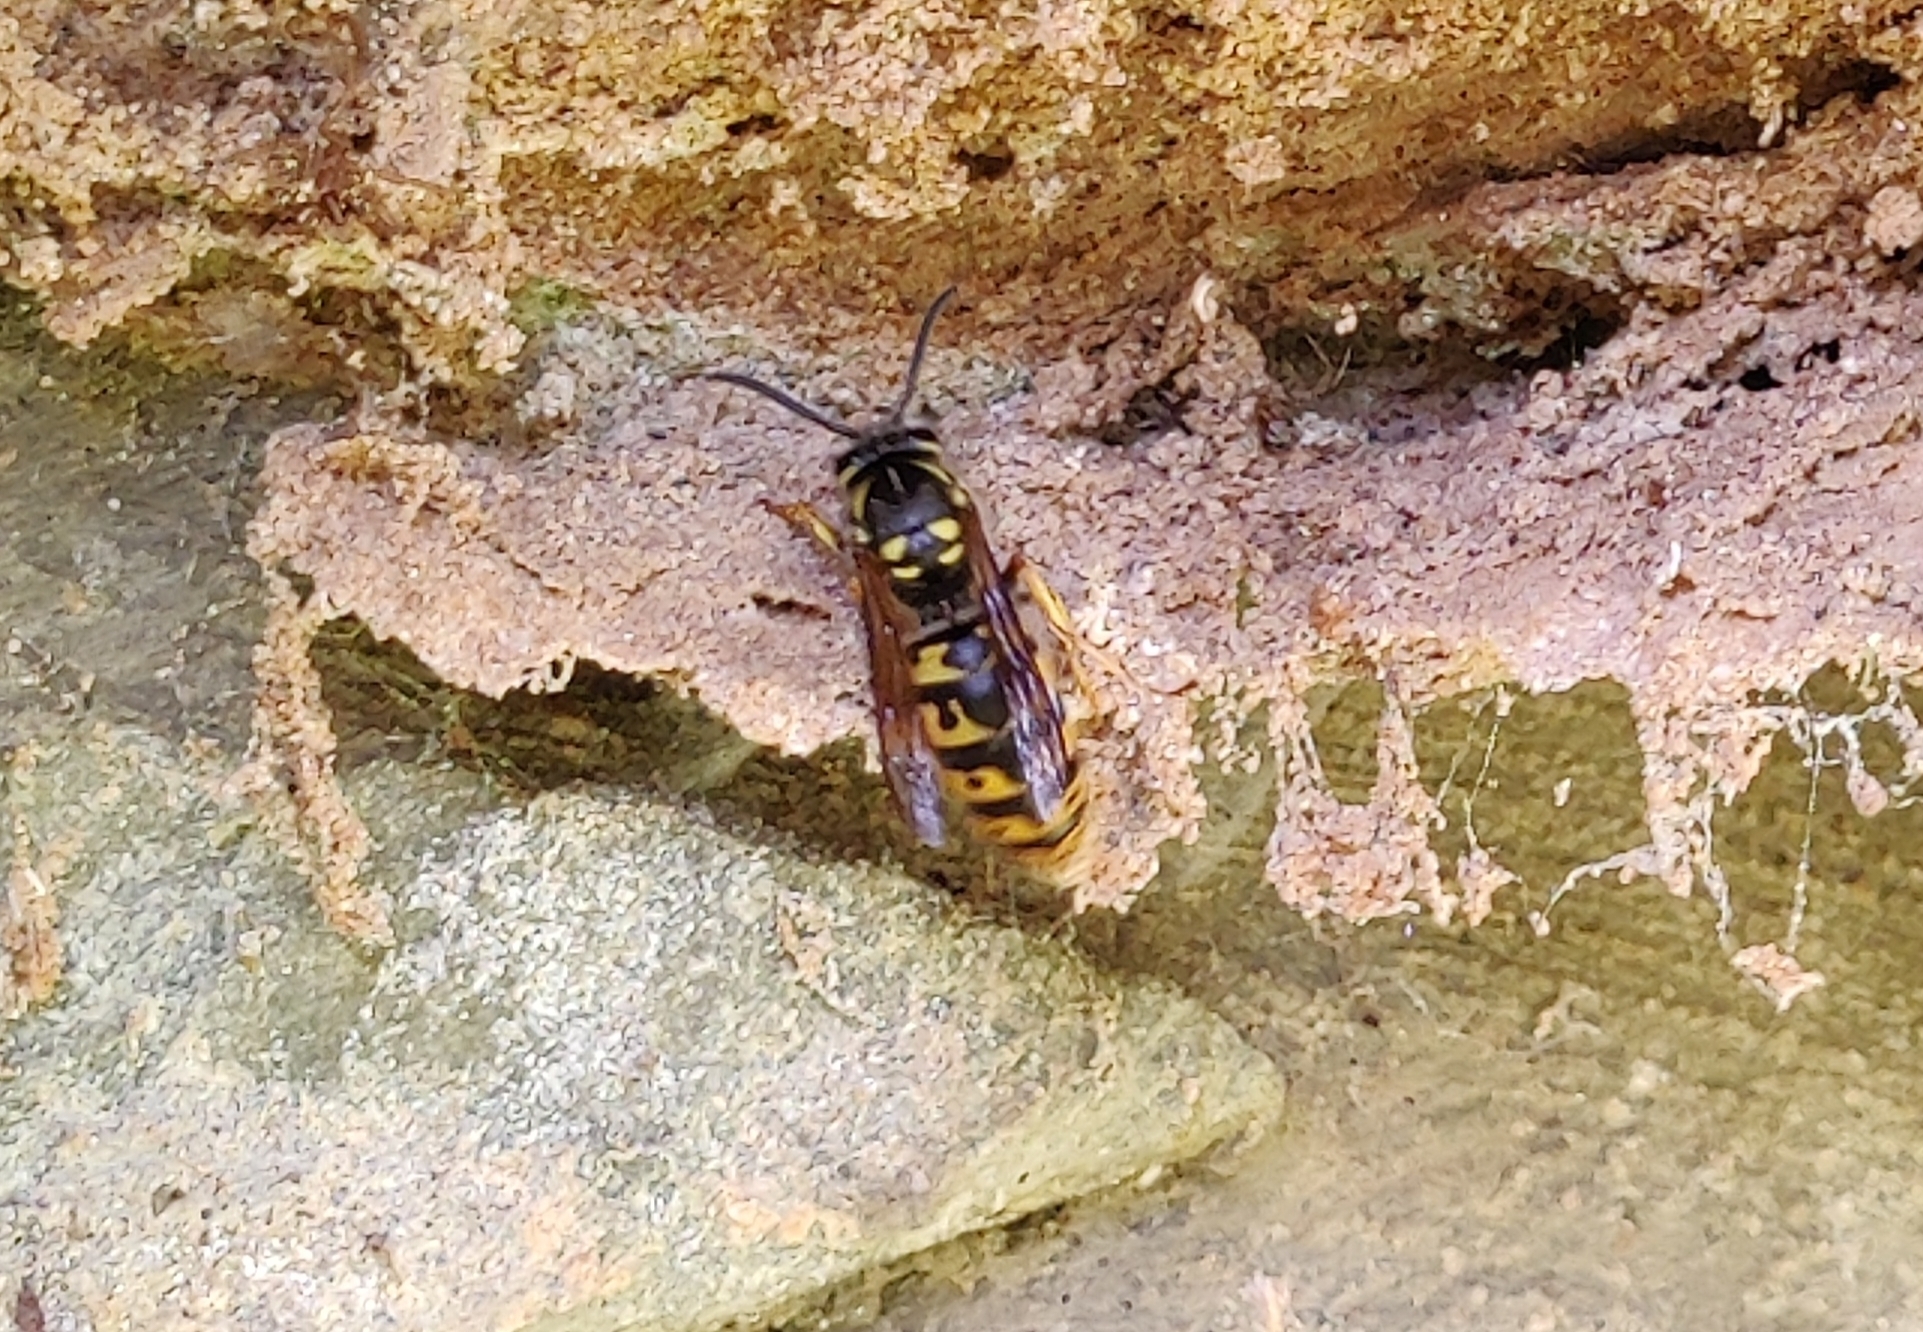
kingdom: Animalia
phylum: Arthropoda
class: Insecta
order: Hymenoptera
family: Vespidae
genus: Vespula
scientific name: Vespula germanica
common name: German wasp
